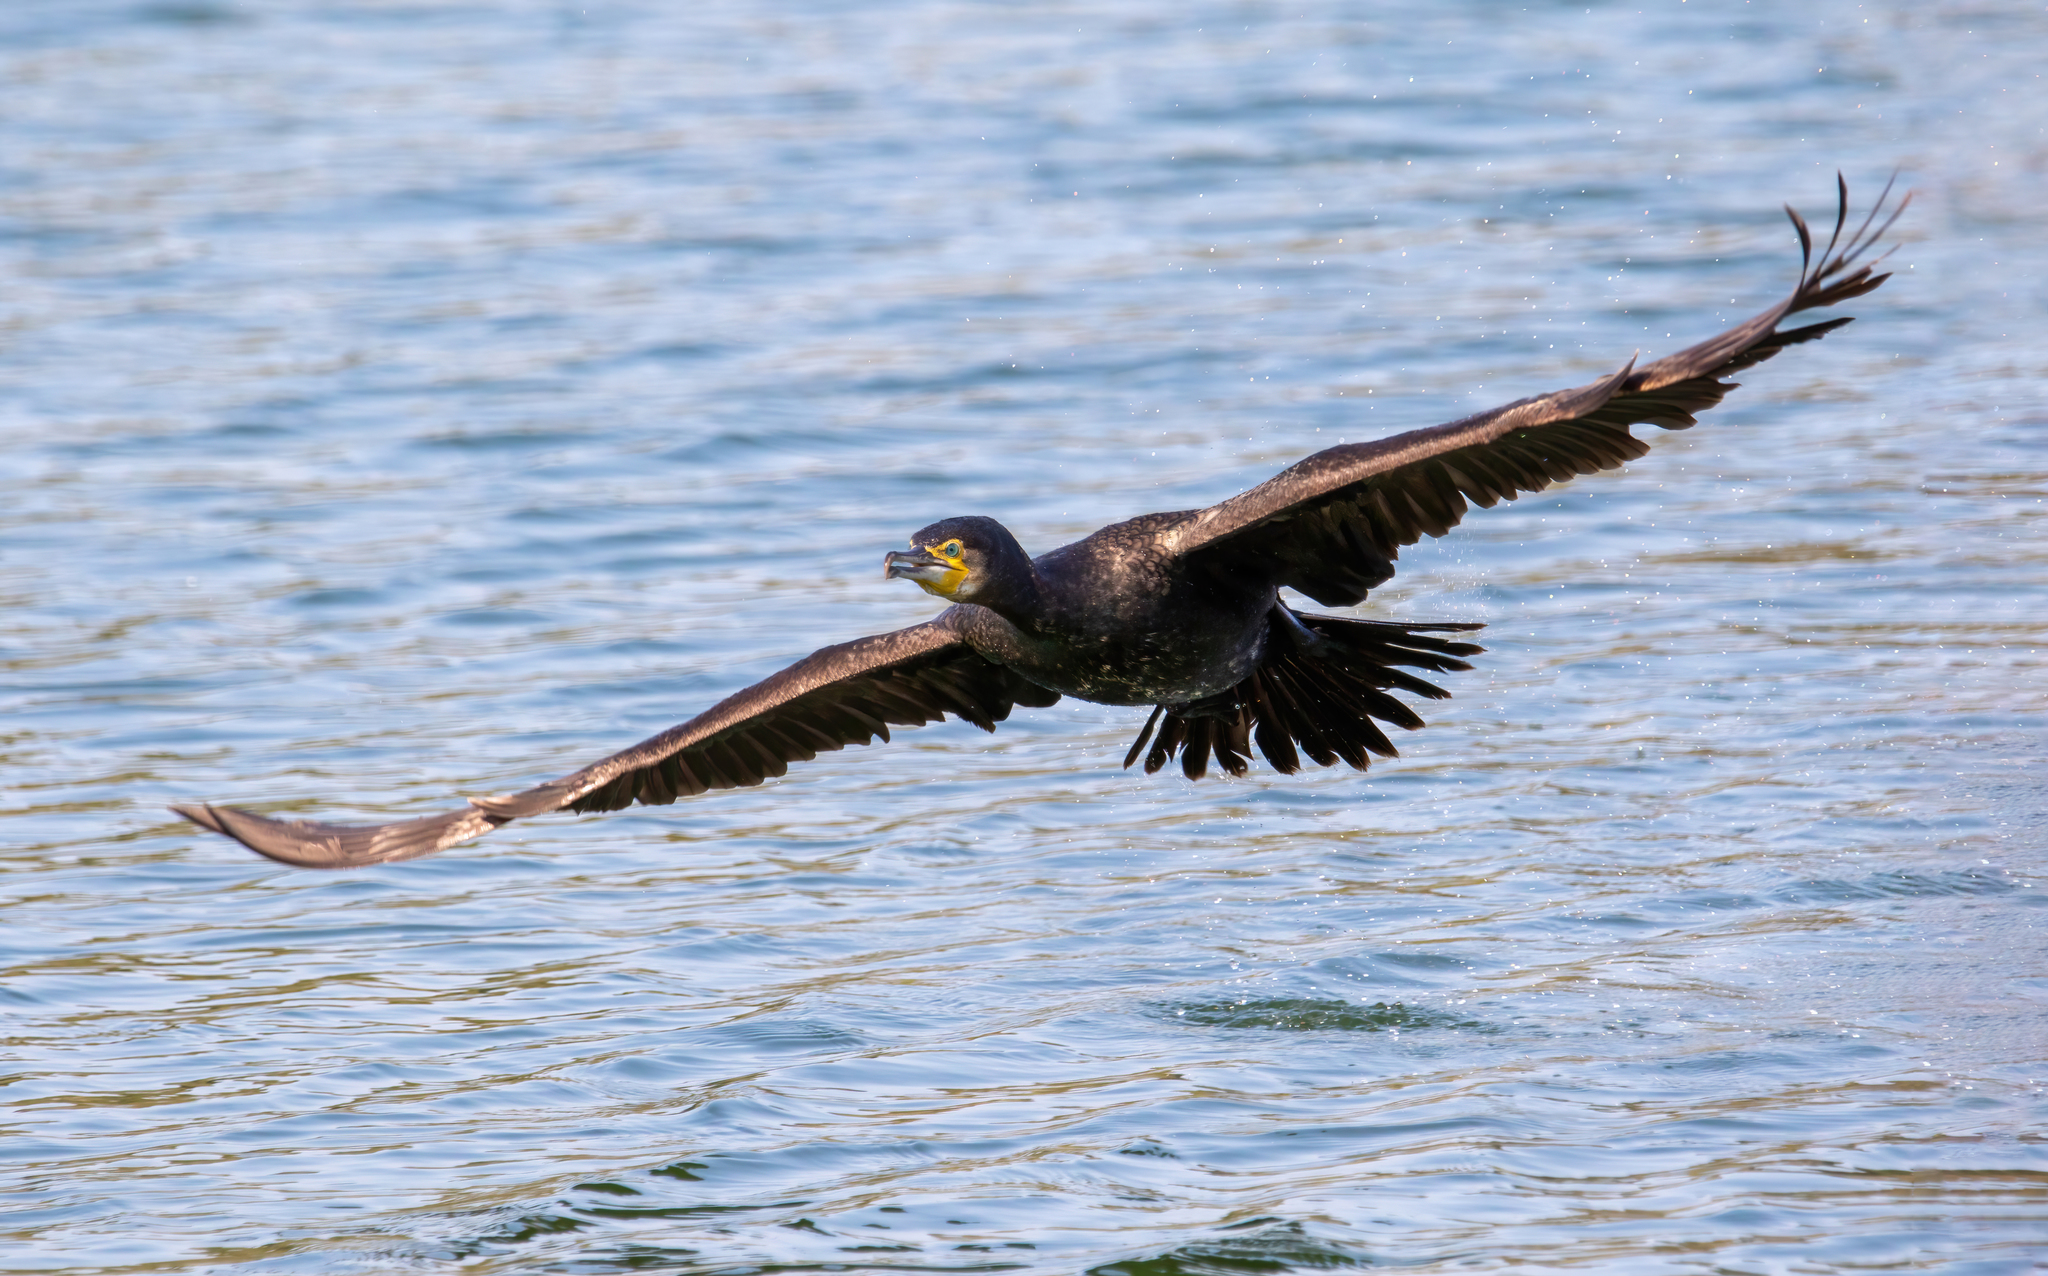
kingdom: Animalia
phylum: Chordata
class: Aves
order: Suliformes
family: Phalacrocoracidae
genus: Phalacrocorax
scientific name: Phalacrocorax carbo
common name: Great cormorant
